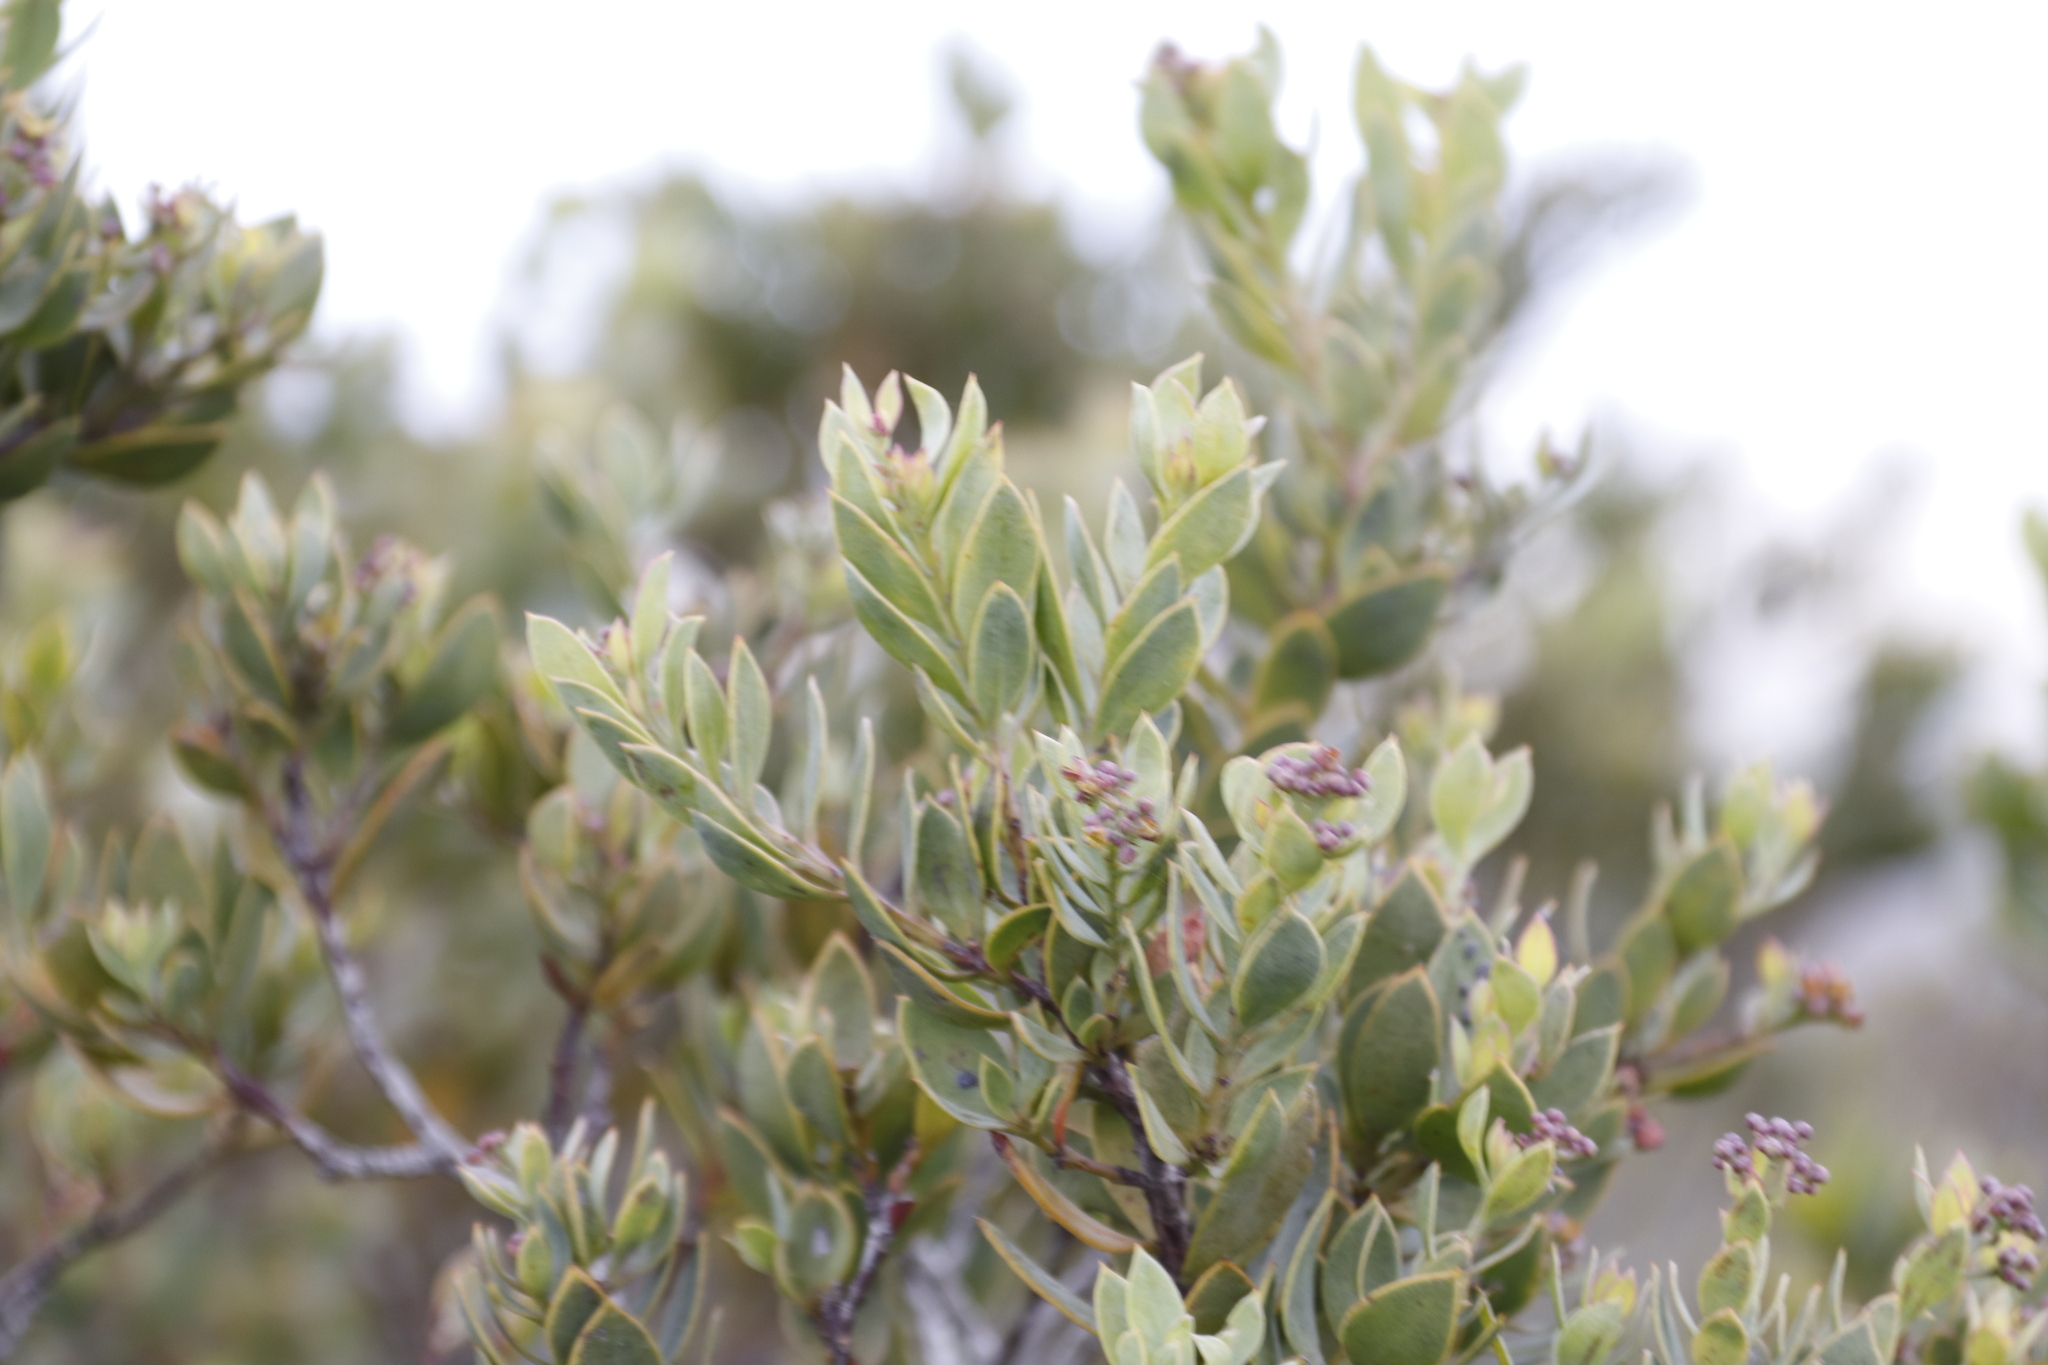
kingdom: Plantae
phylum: Tracheophyta
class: Magnoliopsida
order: Santalales
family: Santalaceae
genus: Osyris
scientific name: Osyris compressa
